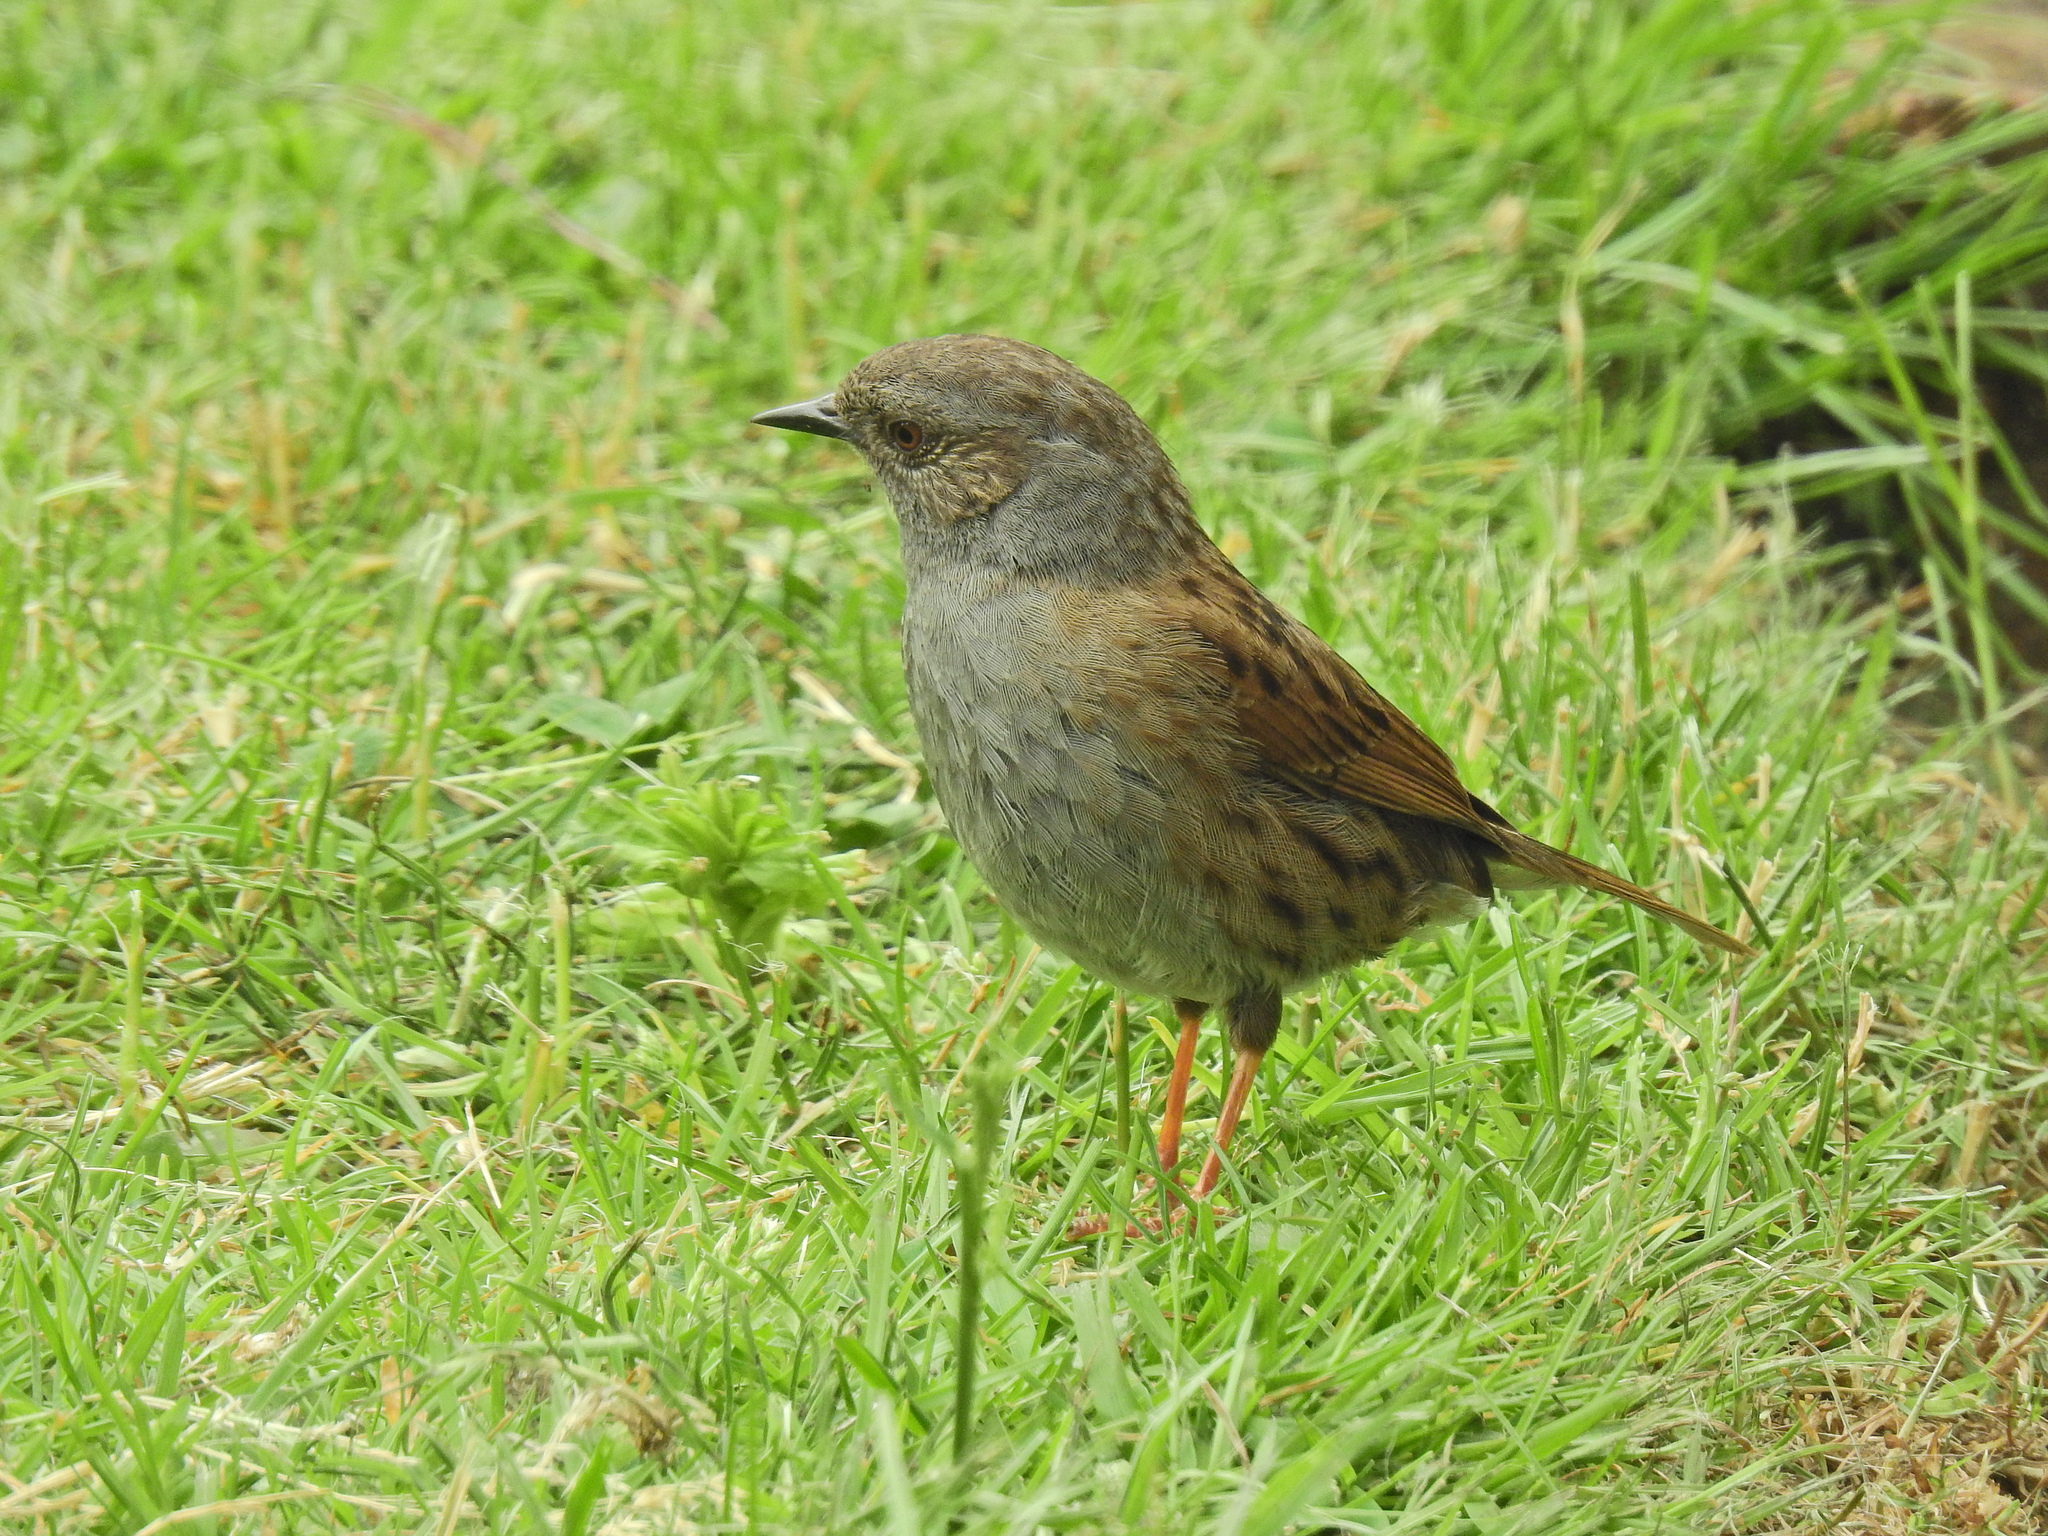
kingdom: Animalia
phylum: Chordata
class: Aves
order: Passeriformes
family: Prunellidae
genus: Prunella
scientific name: Prunella modularis
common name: Dunnock
